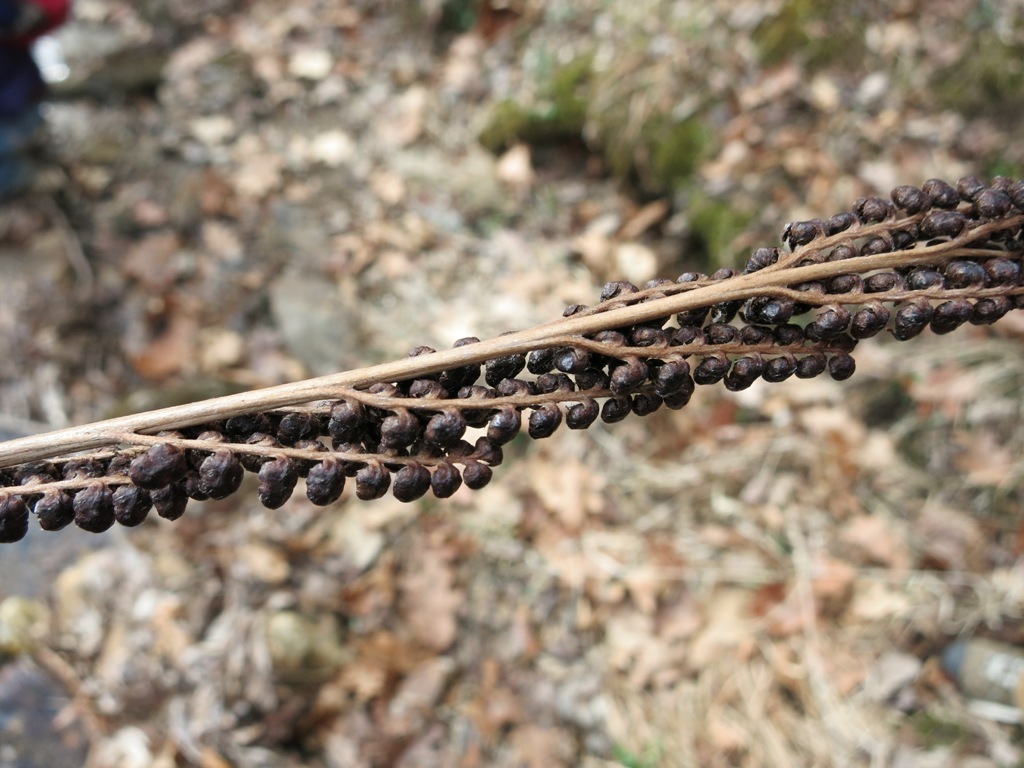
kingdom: Plantae
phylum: Tracheophyta
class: Polypodiopsida
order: Polypodiales
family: Onocleaceae
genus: Onoclea
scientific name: Onoclea sensibilis
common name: Sensitive fern
